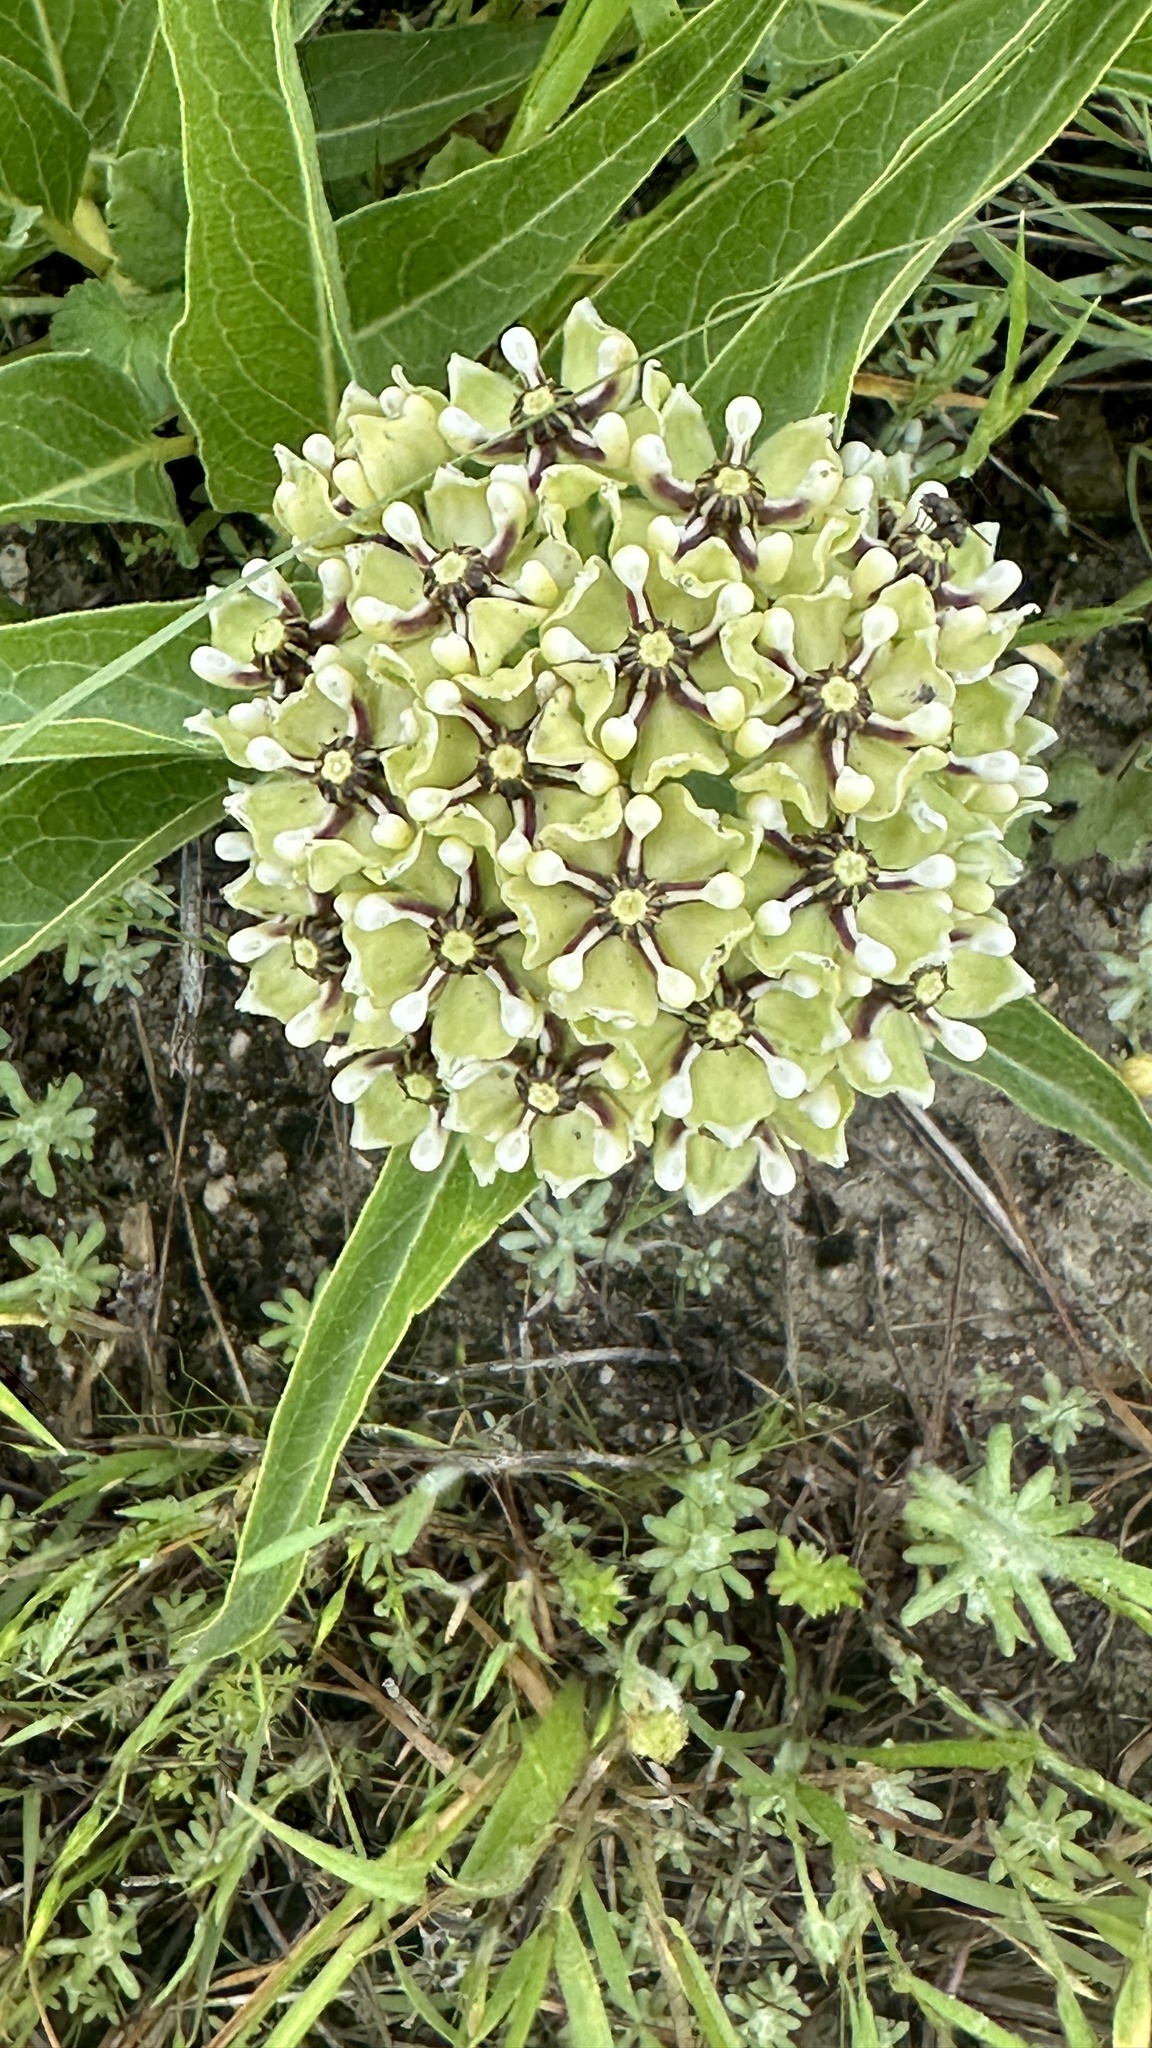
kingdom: Plantae
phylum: Tracheophyta
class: Magnoliopsida
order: Gentianales
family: Apocynaceae
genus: Asclepias
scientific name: Asclepias asperula
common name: Antelope horns
